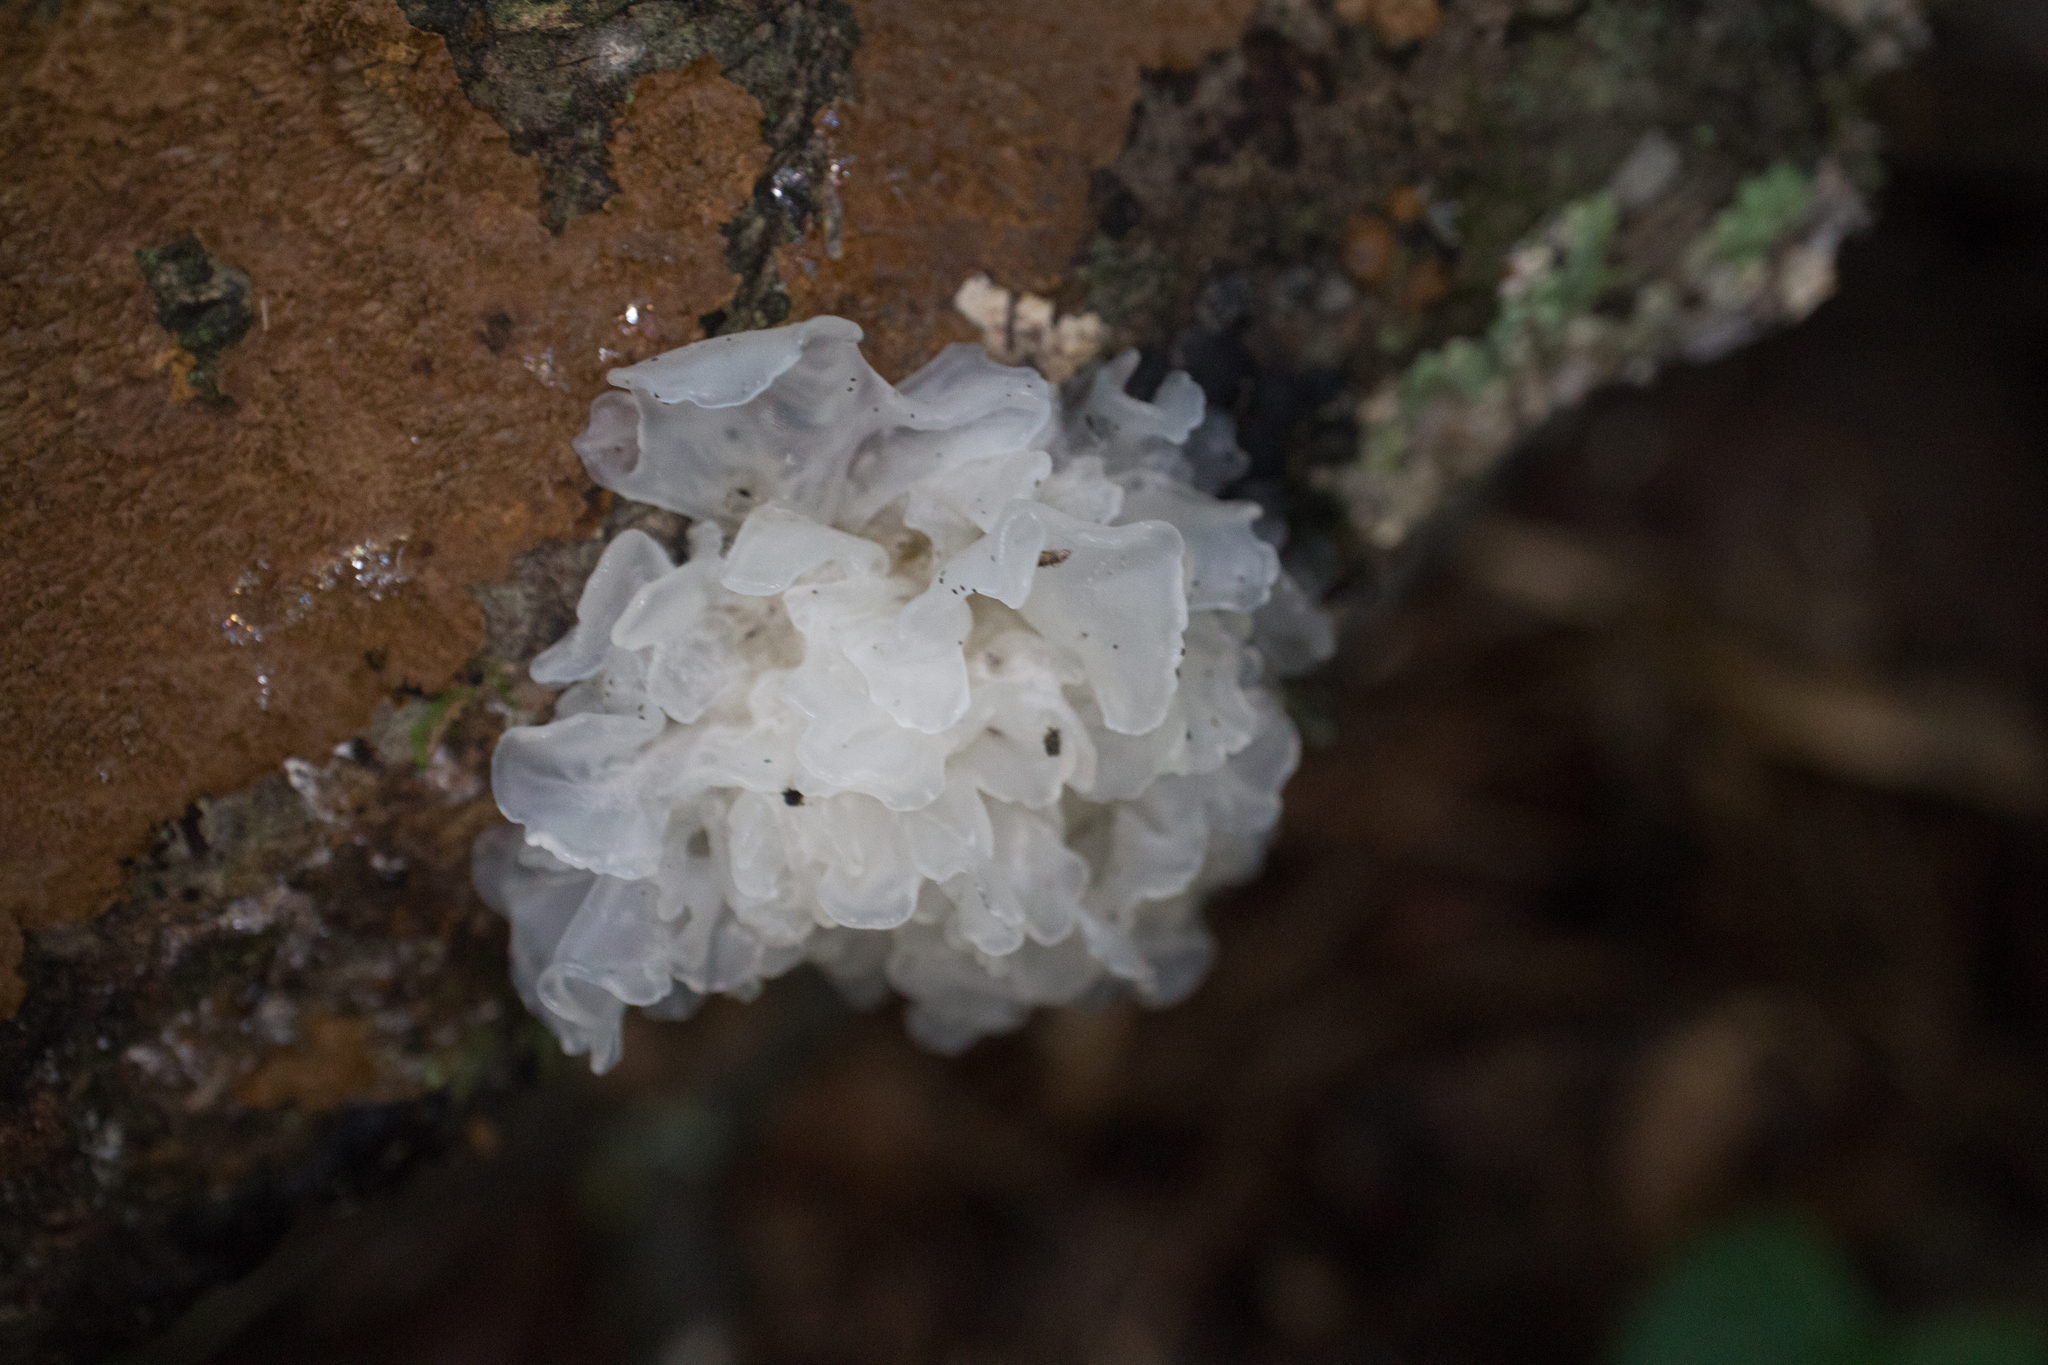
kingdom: Fungi
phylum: Basidiomycota
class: Tremellomycetes
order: Tremellales
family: Tremellaceae
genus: Tremella
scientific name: Tremella fuciformis
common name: Snow fungus
